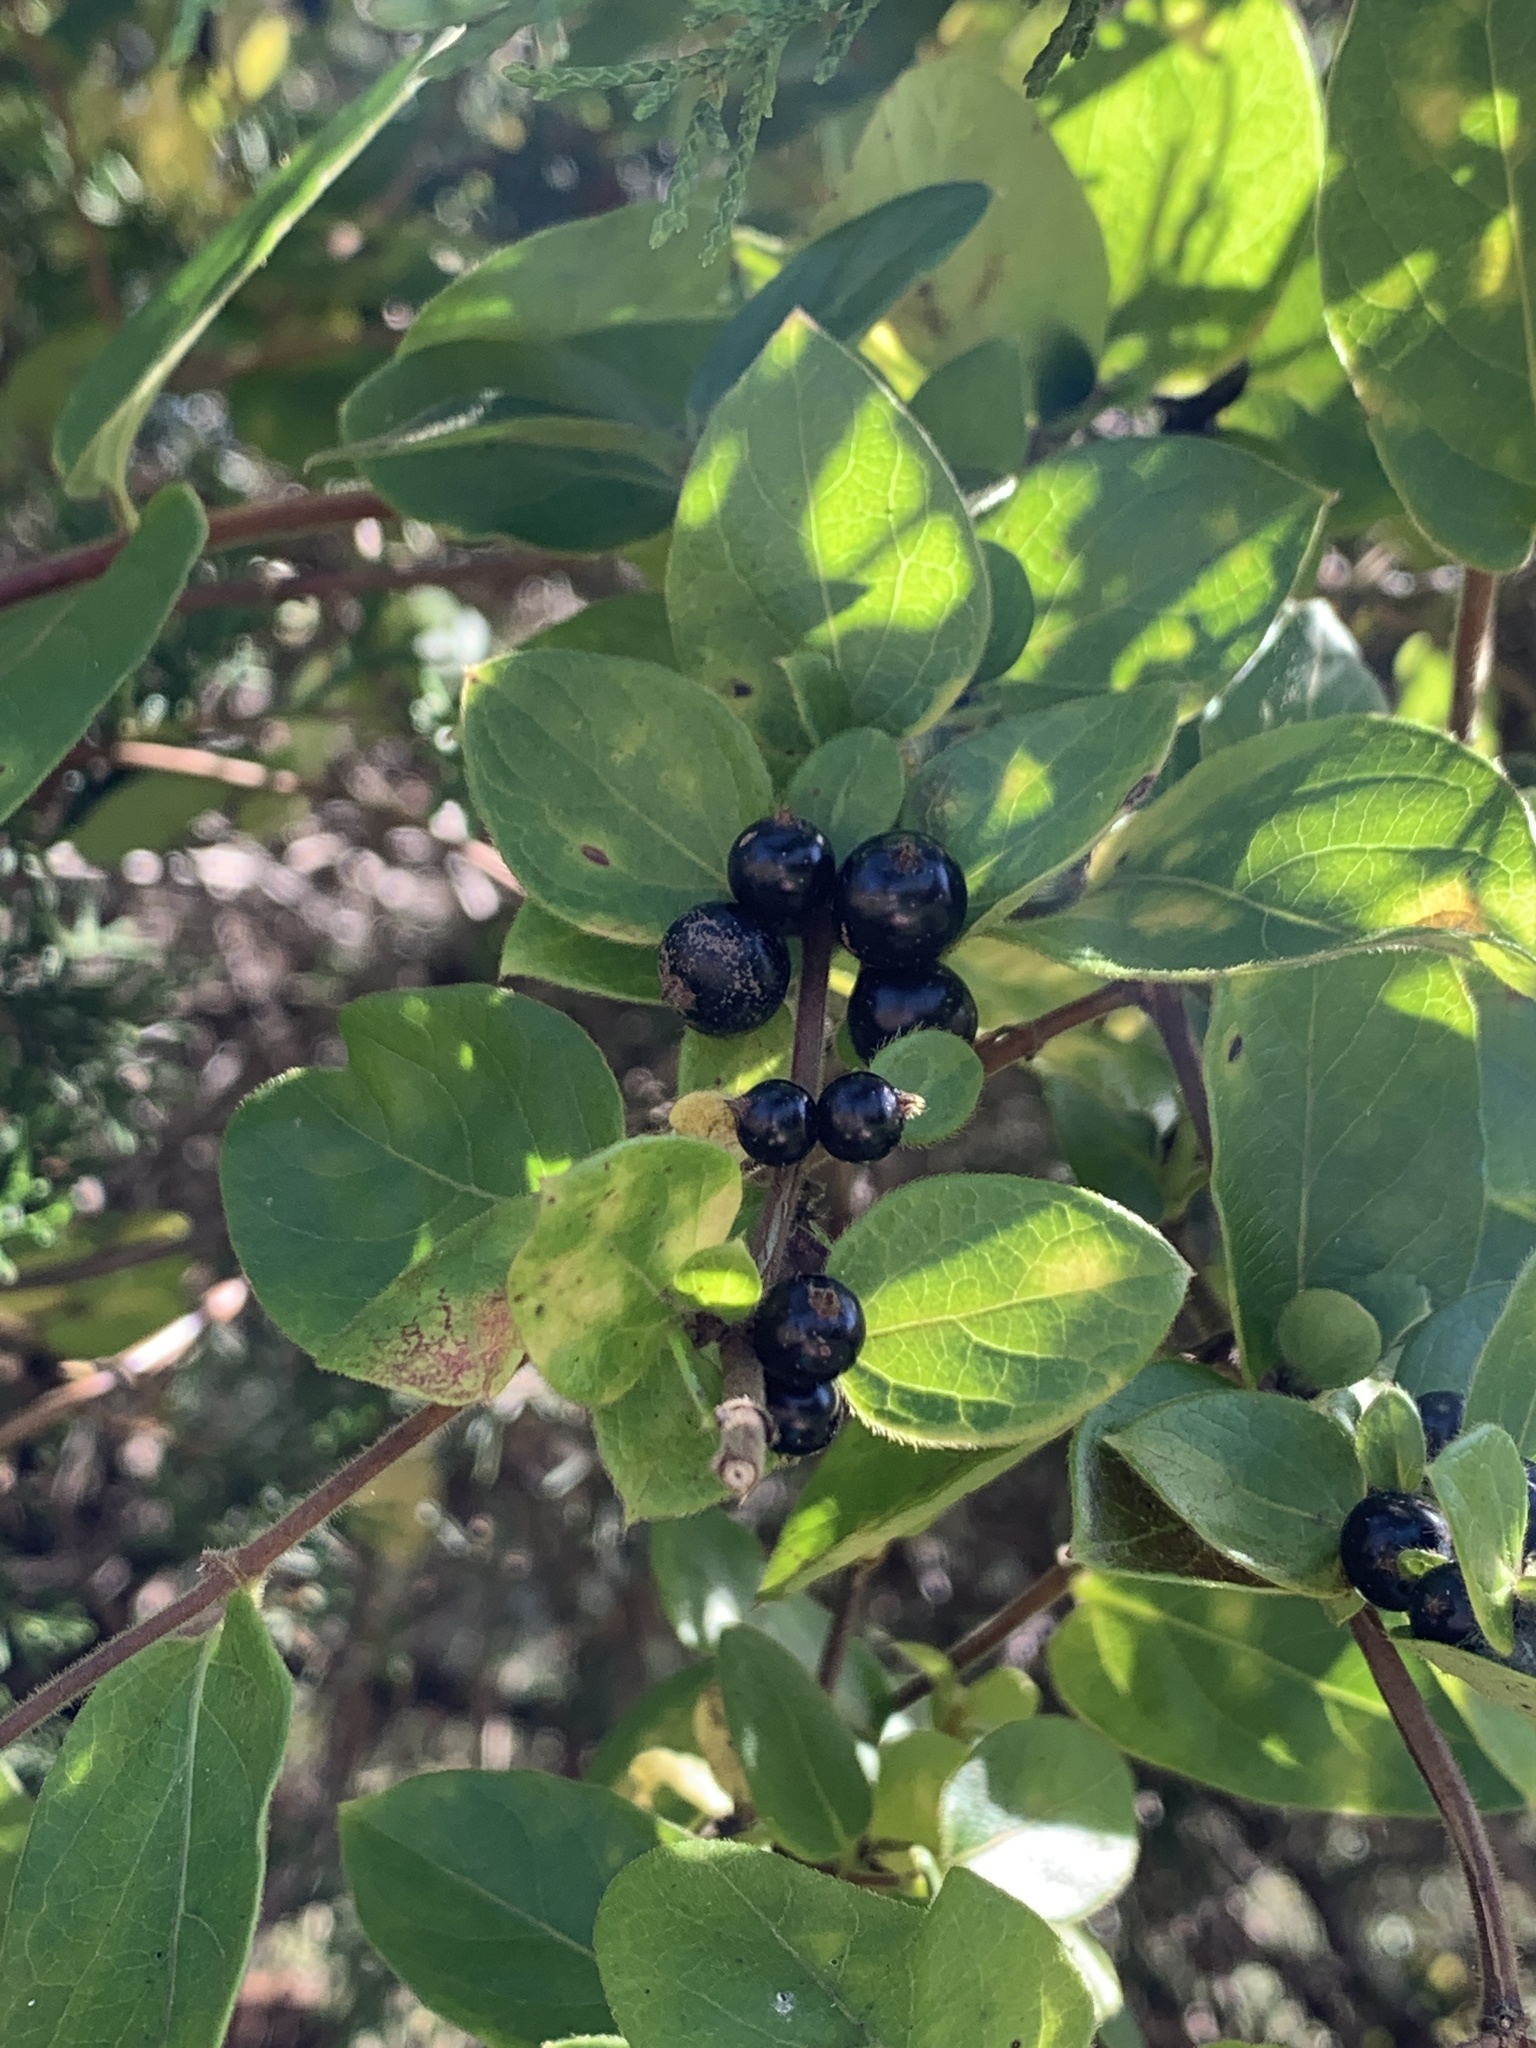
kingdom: Plantae
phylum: Tracheophyta
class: Magnoliopsida
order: Dipsacales
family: Caprifoliaceae
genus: Lonicera
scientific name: Lonicera japonica
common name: Japanese honeysuckle
